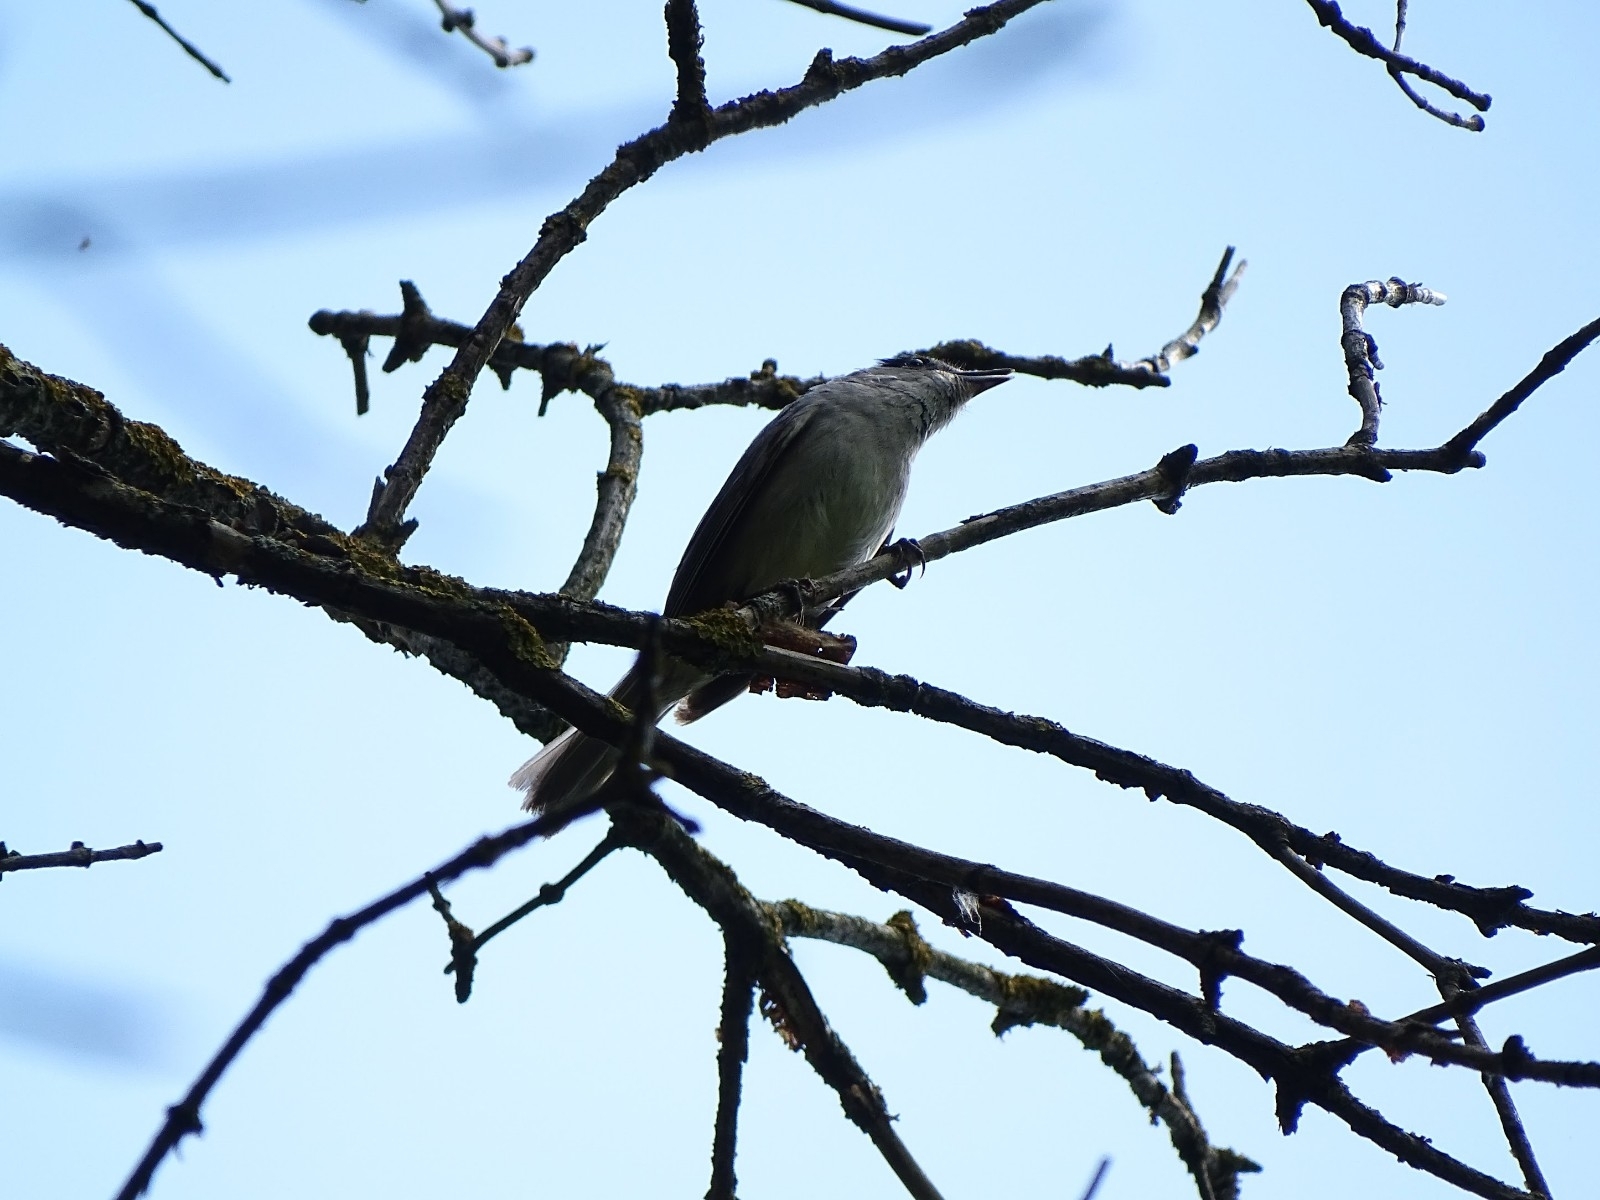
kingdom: Animalia
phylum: Chordata
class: Aves
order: Passeriformes
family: Sylviidae
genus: Sylvia
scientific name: Sylvia atricapilla
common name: Eurasian blackcap
